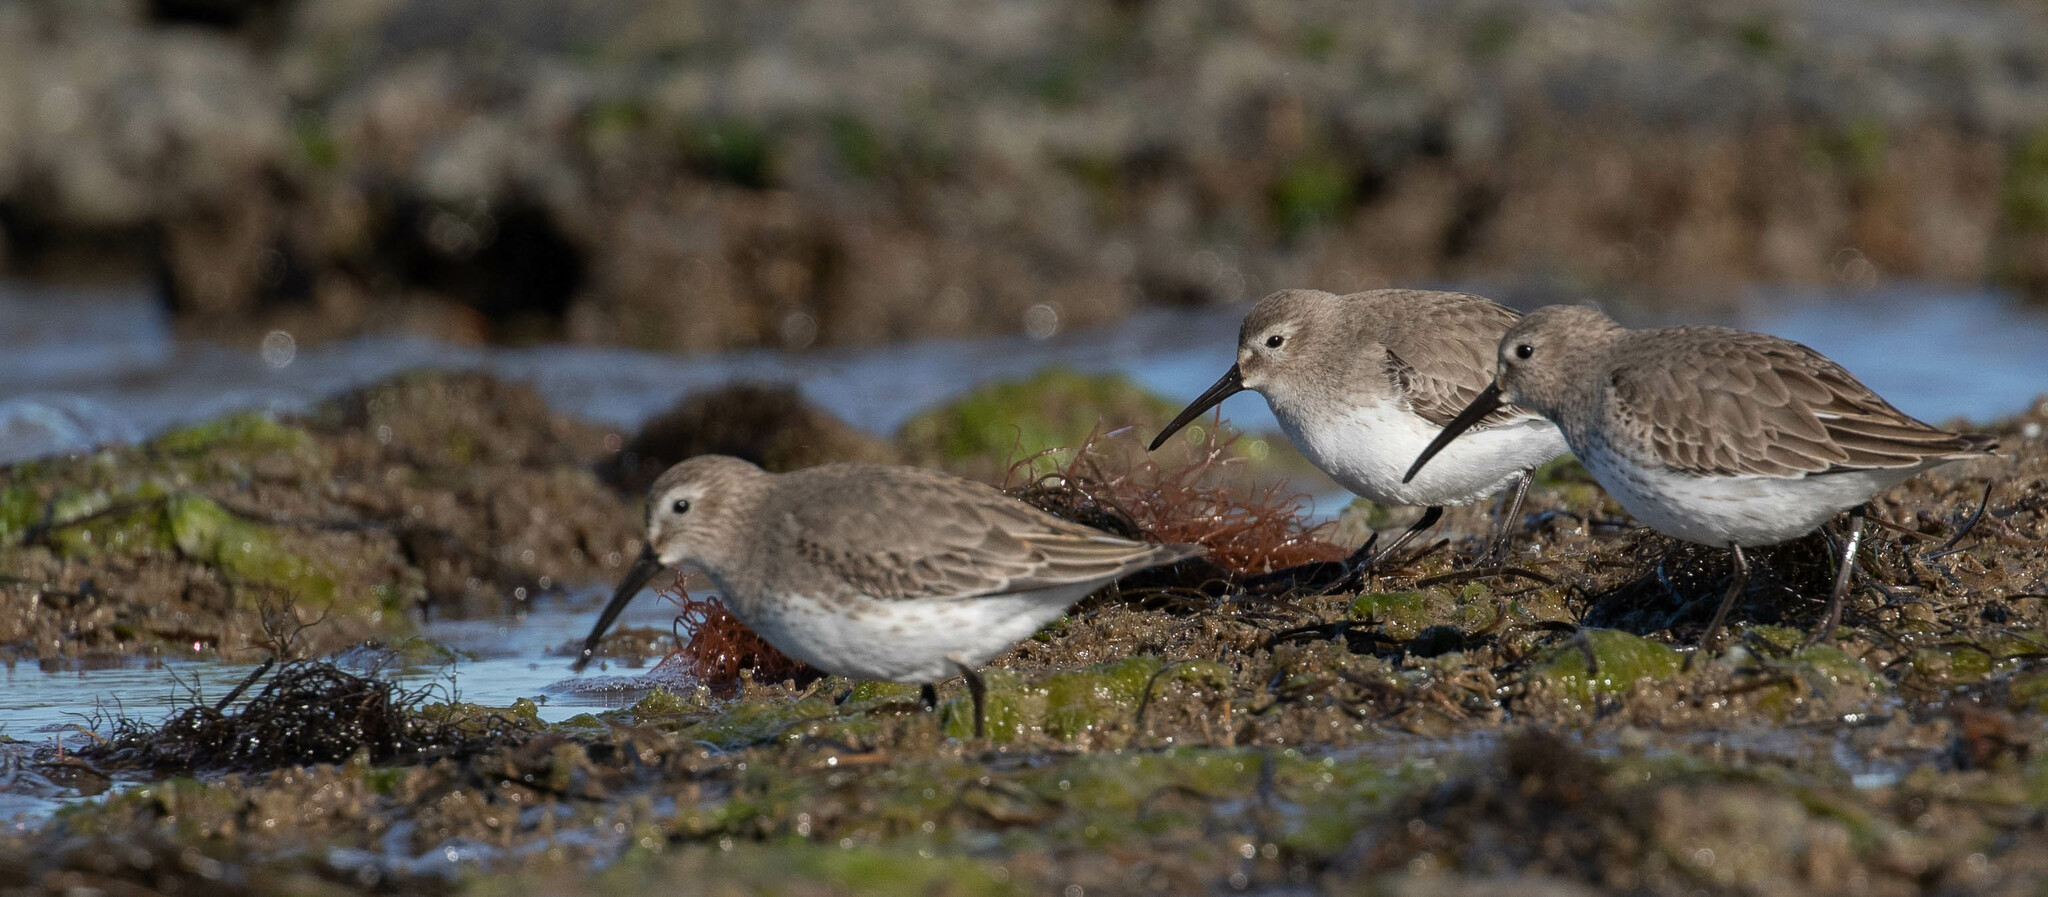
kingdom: Animalia
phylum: Chordata
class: Aves
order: Charadriiformes
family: Scolopacidae
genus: Calidris
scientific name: Calidris alpina
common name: Dunlin
